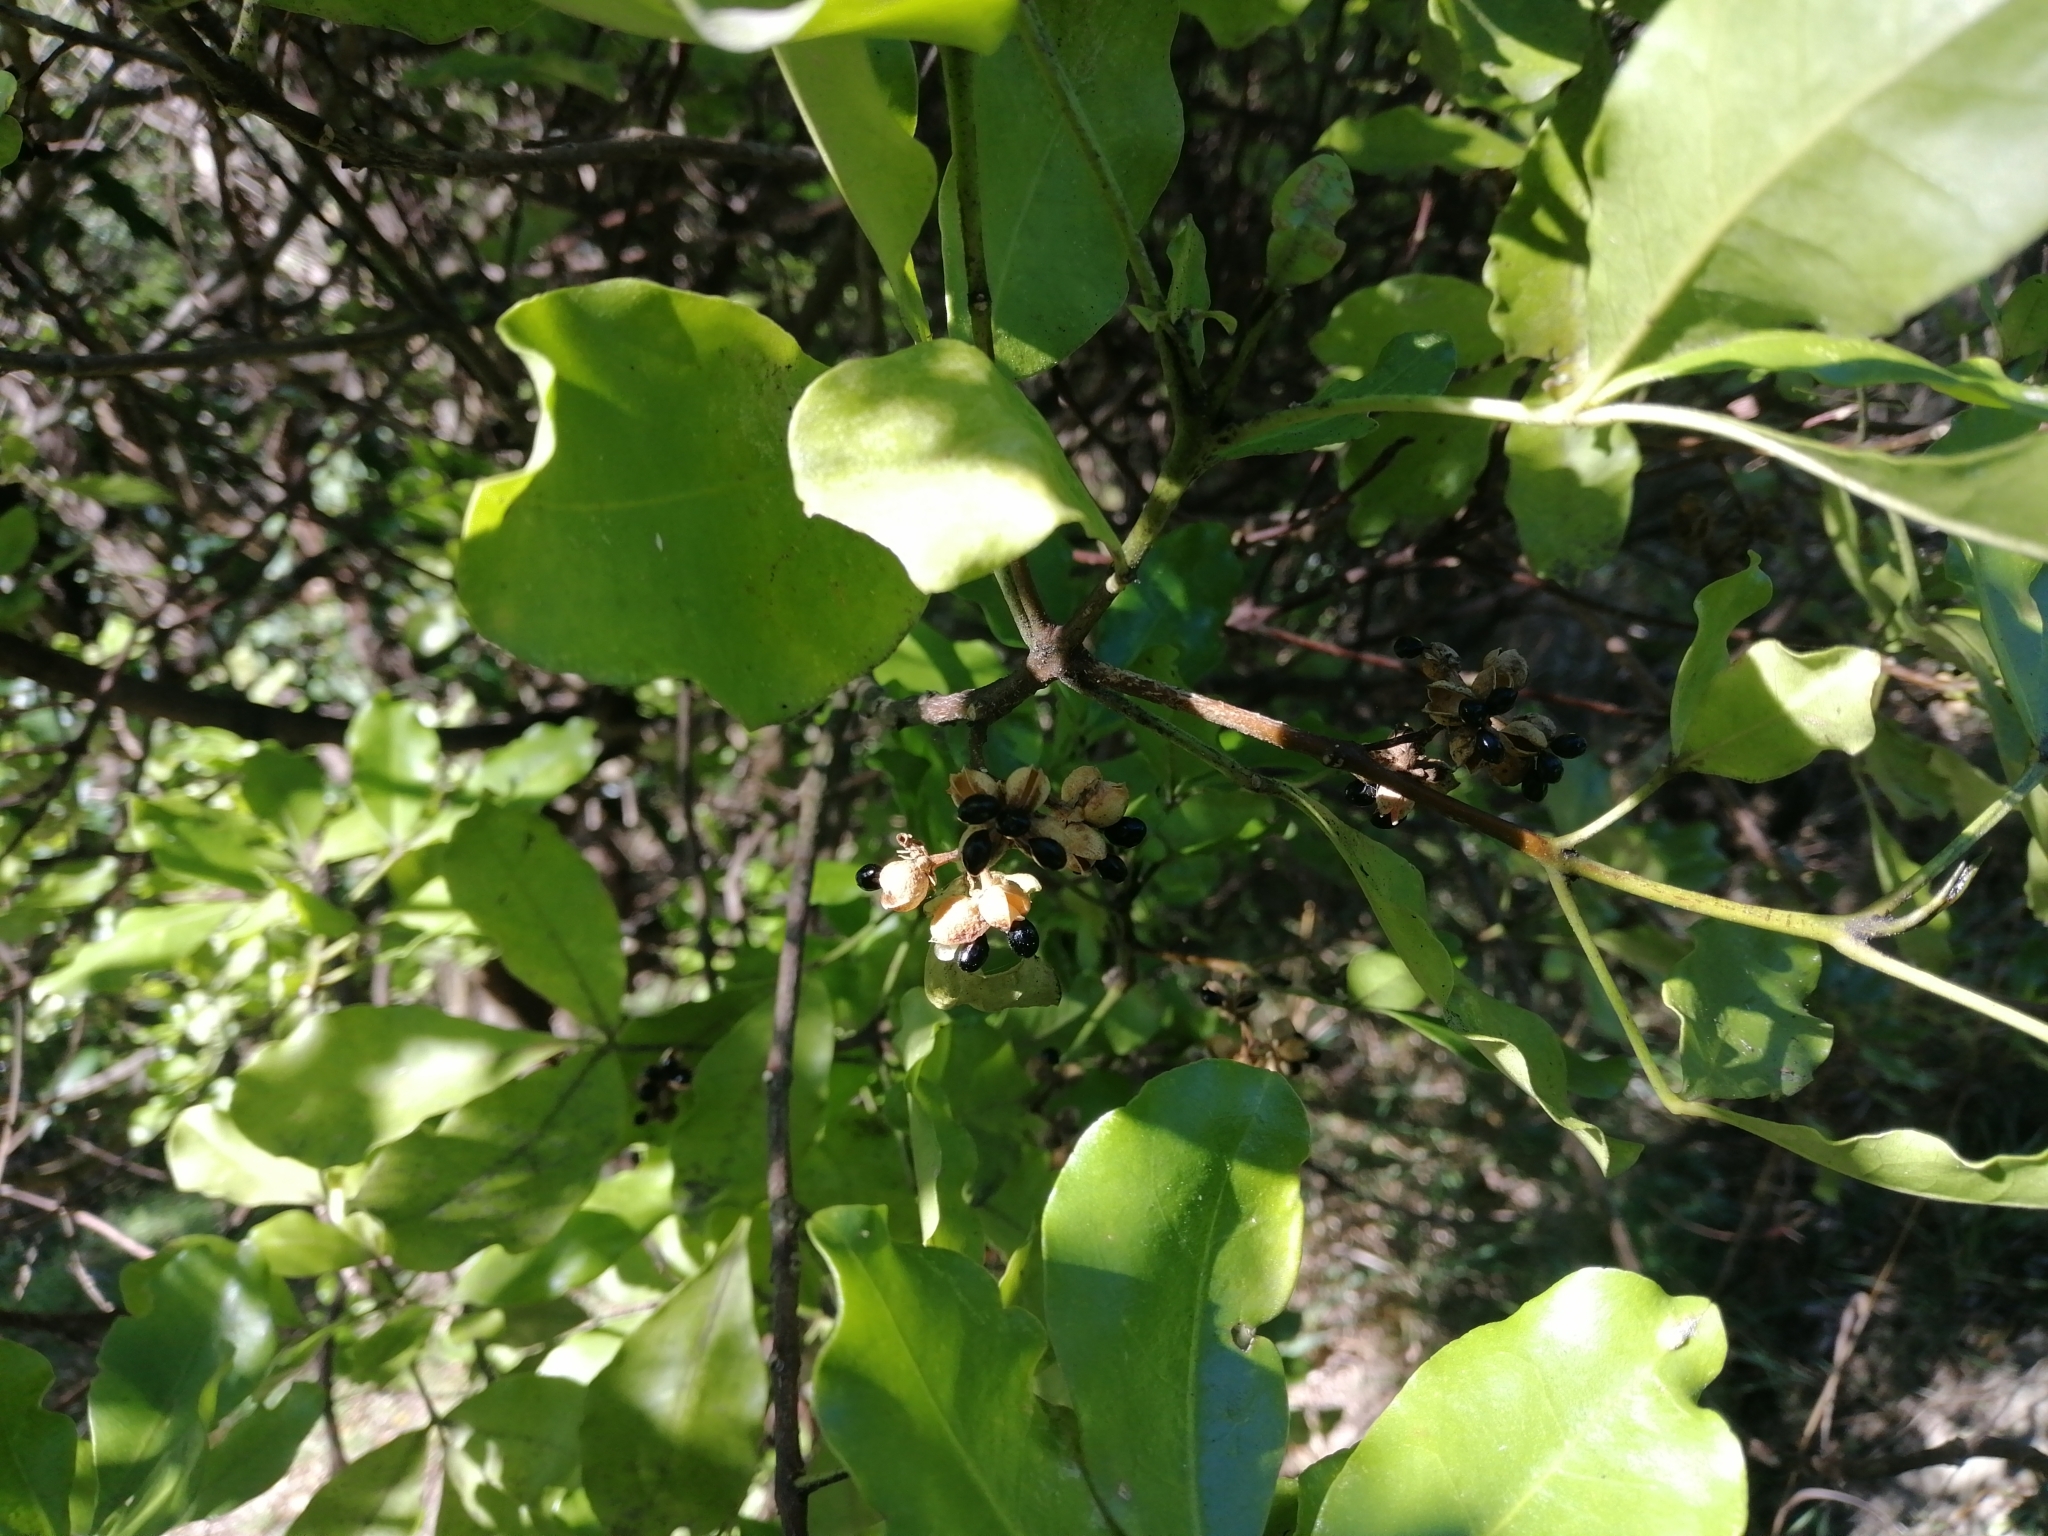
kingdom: Plantae
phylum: Tracheophyta
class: Magnoliopsida
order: Sapindales
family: Rutaceae
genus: Melicope
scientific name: Melicope ternata
